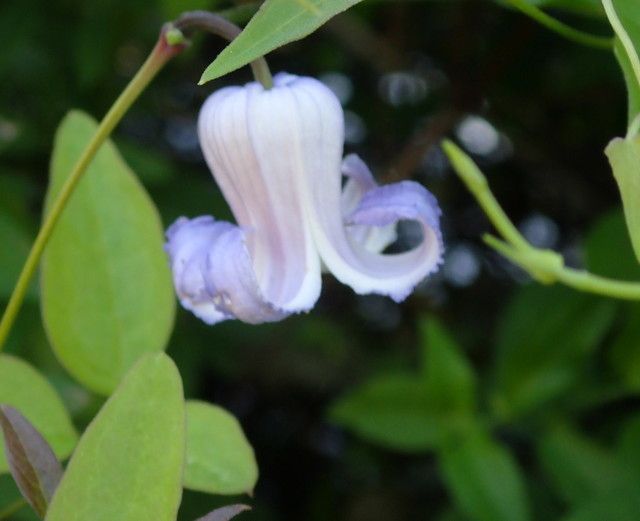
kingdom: Plantae
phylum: Tracheophyta
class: Magnoliopsida
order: Ranunculales
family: Ranunculaceae
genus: Clematis
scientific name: Clematis crispa
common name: Curly clematis
